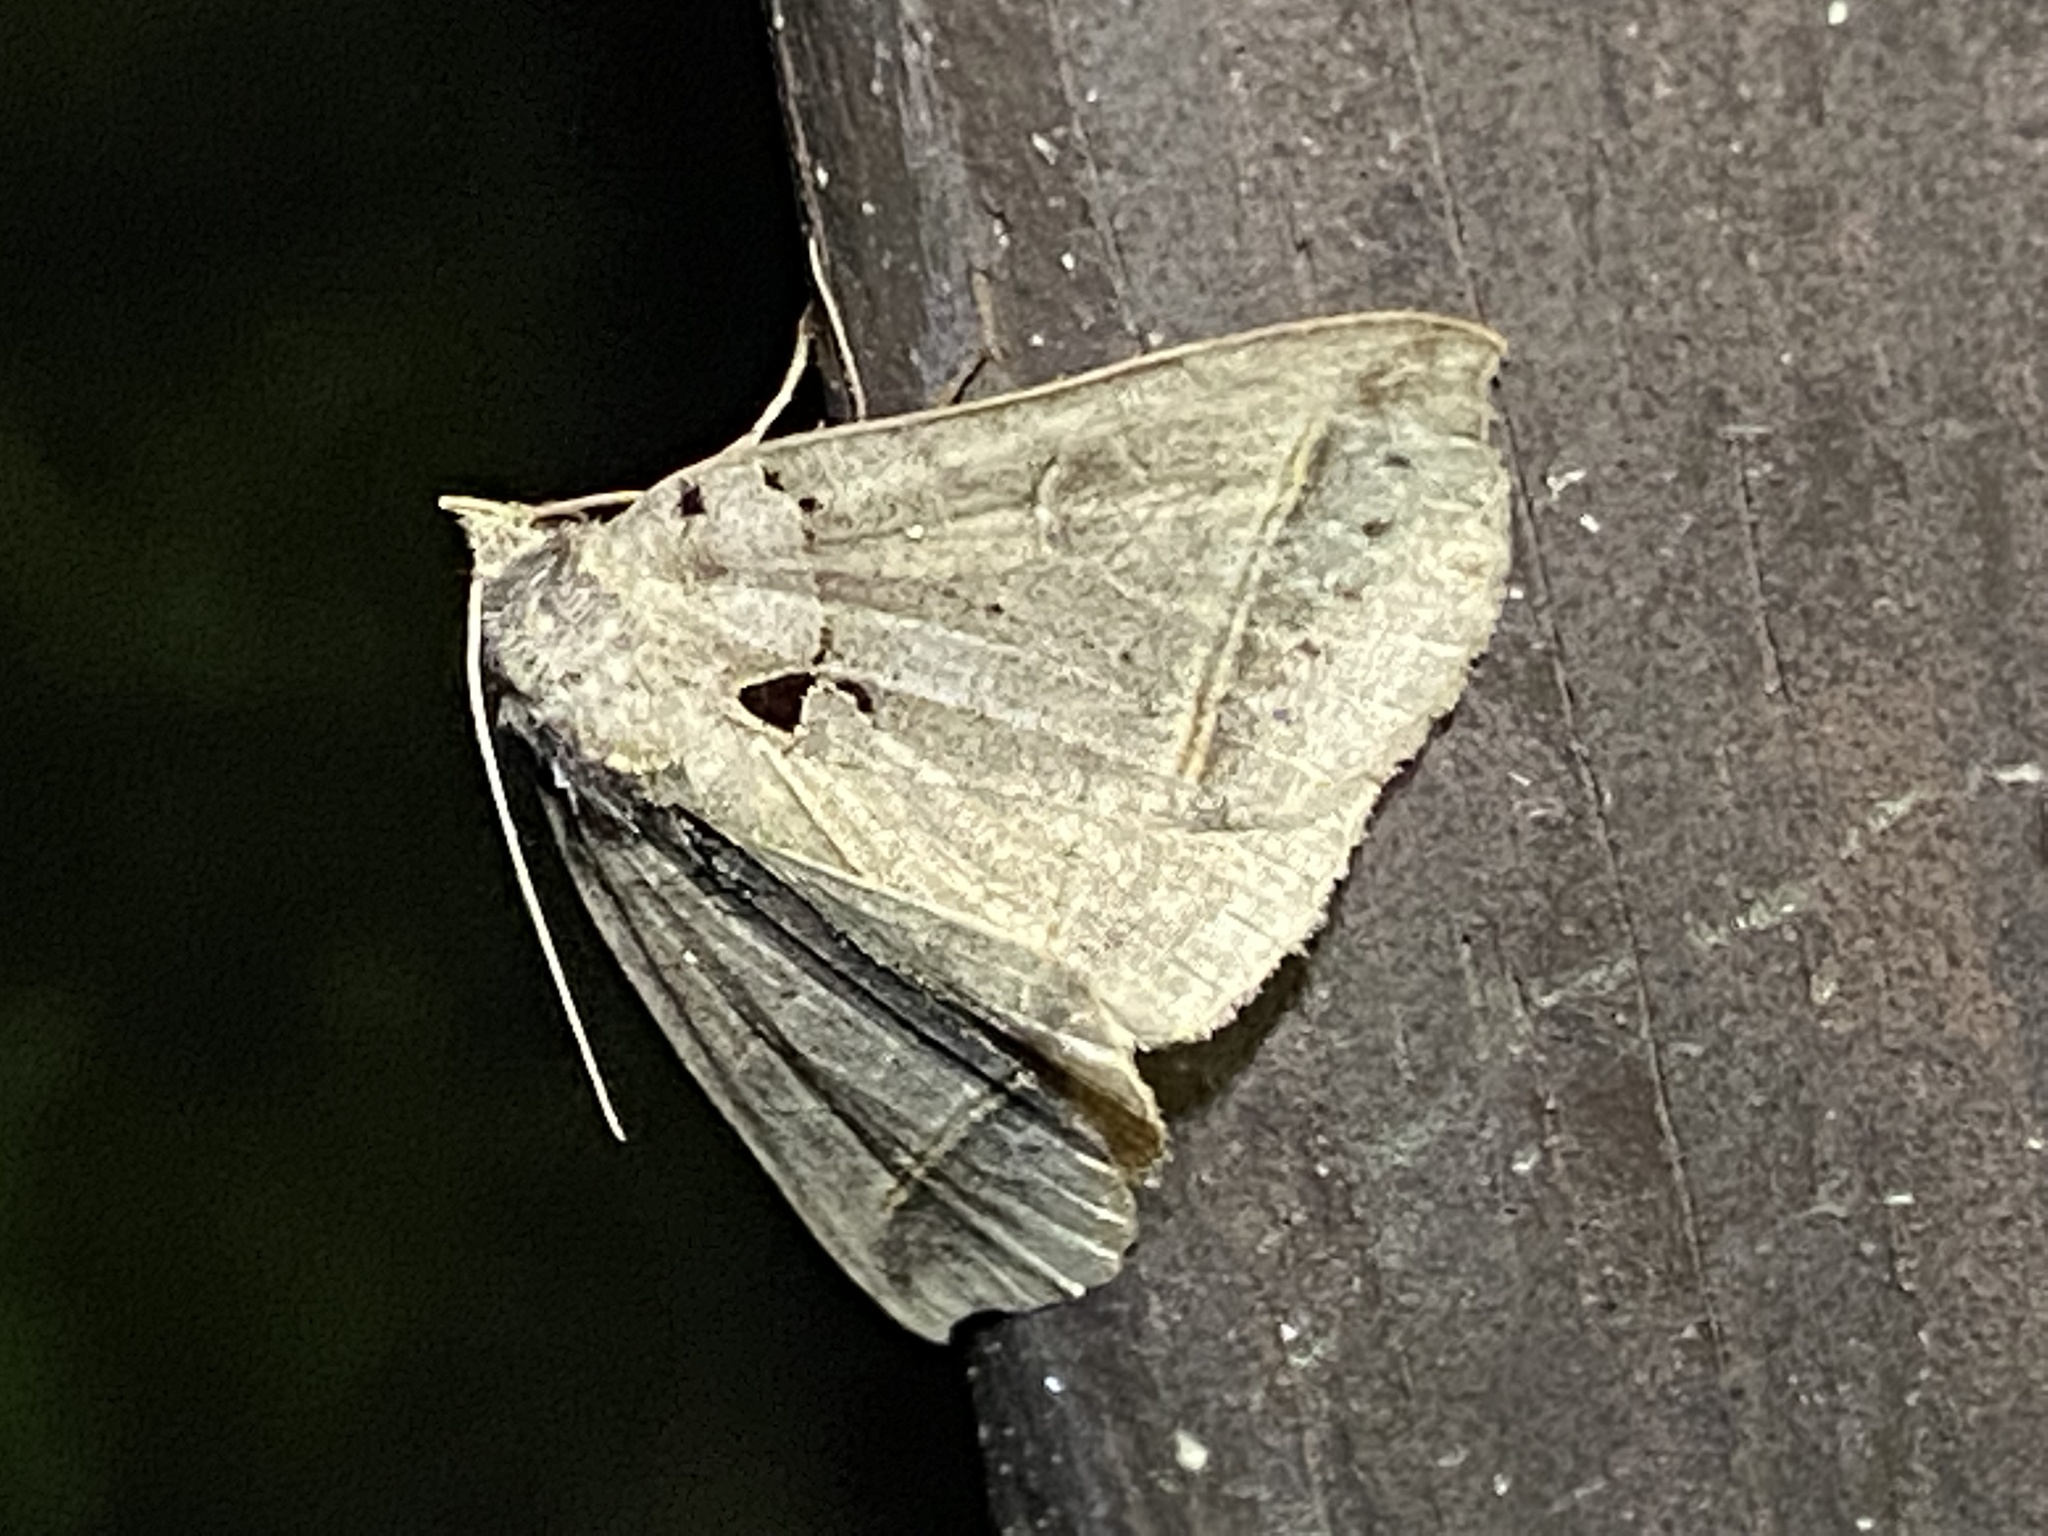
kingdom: Animalia
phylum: Arthropoda
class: Insecta
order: Lepidoptera
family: Erebidae
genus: Celiptera
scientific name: Celiptera frustulum
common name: Black bit moth
